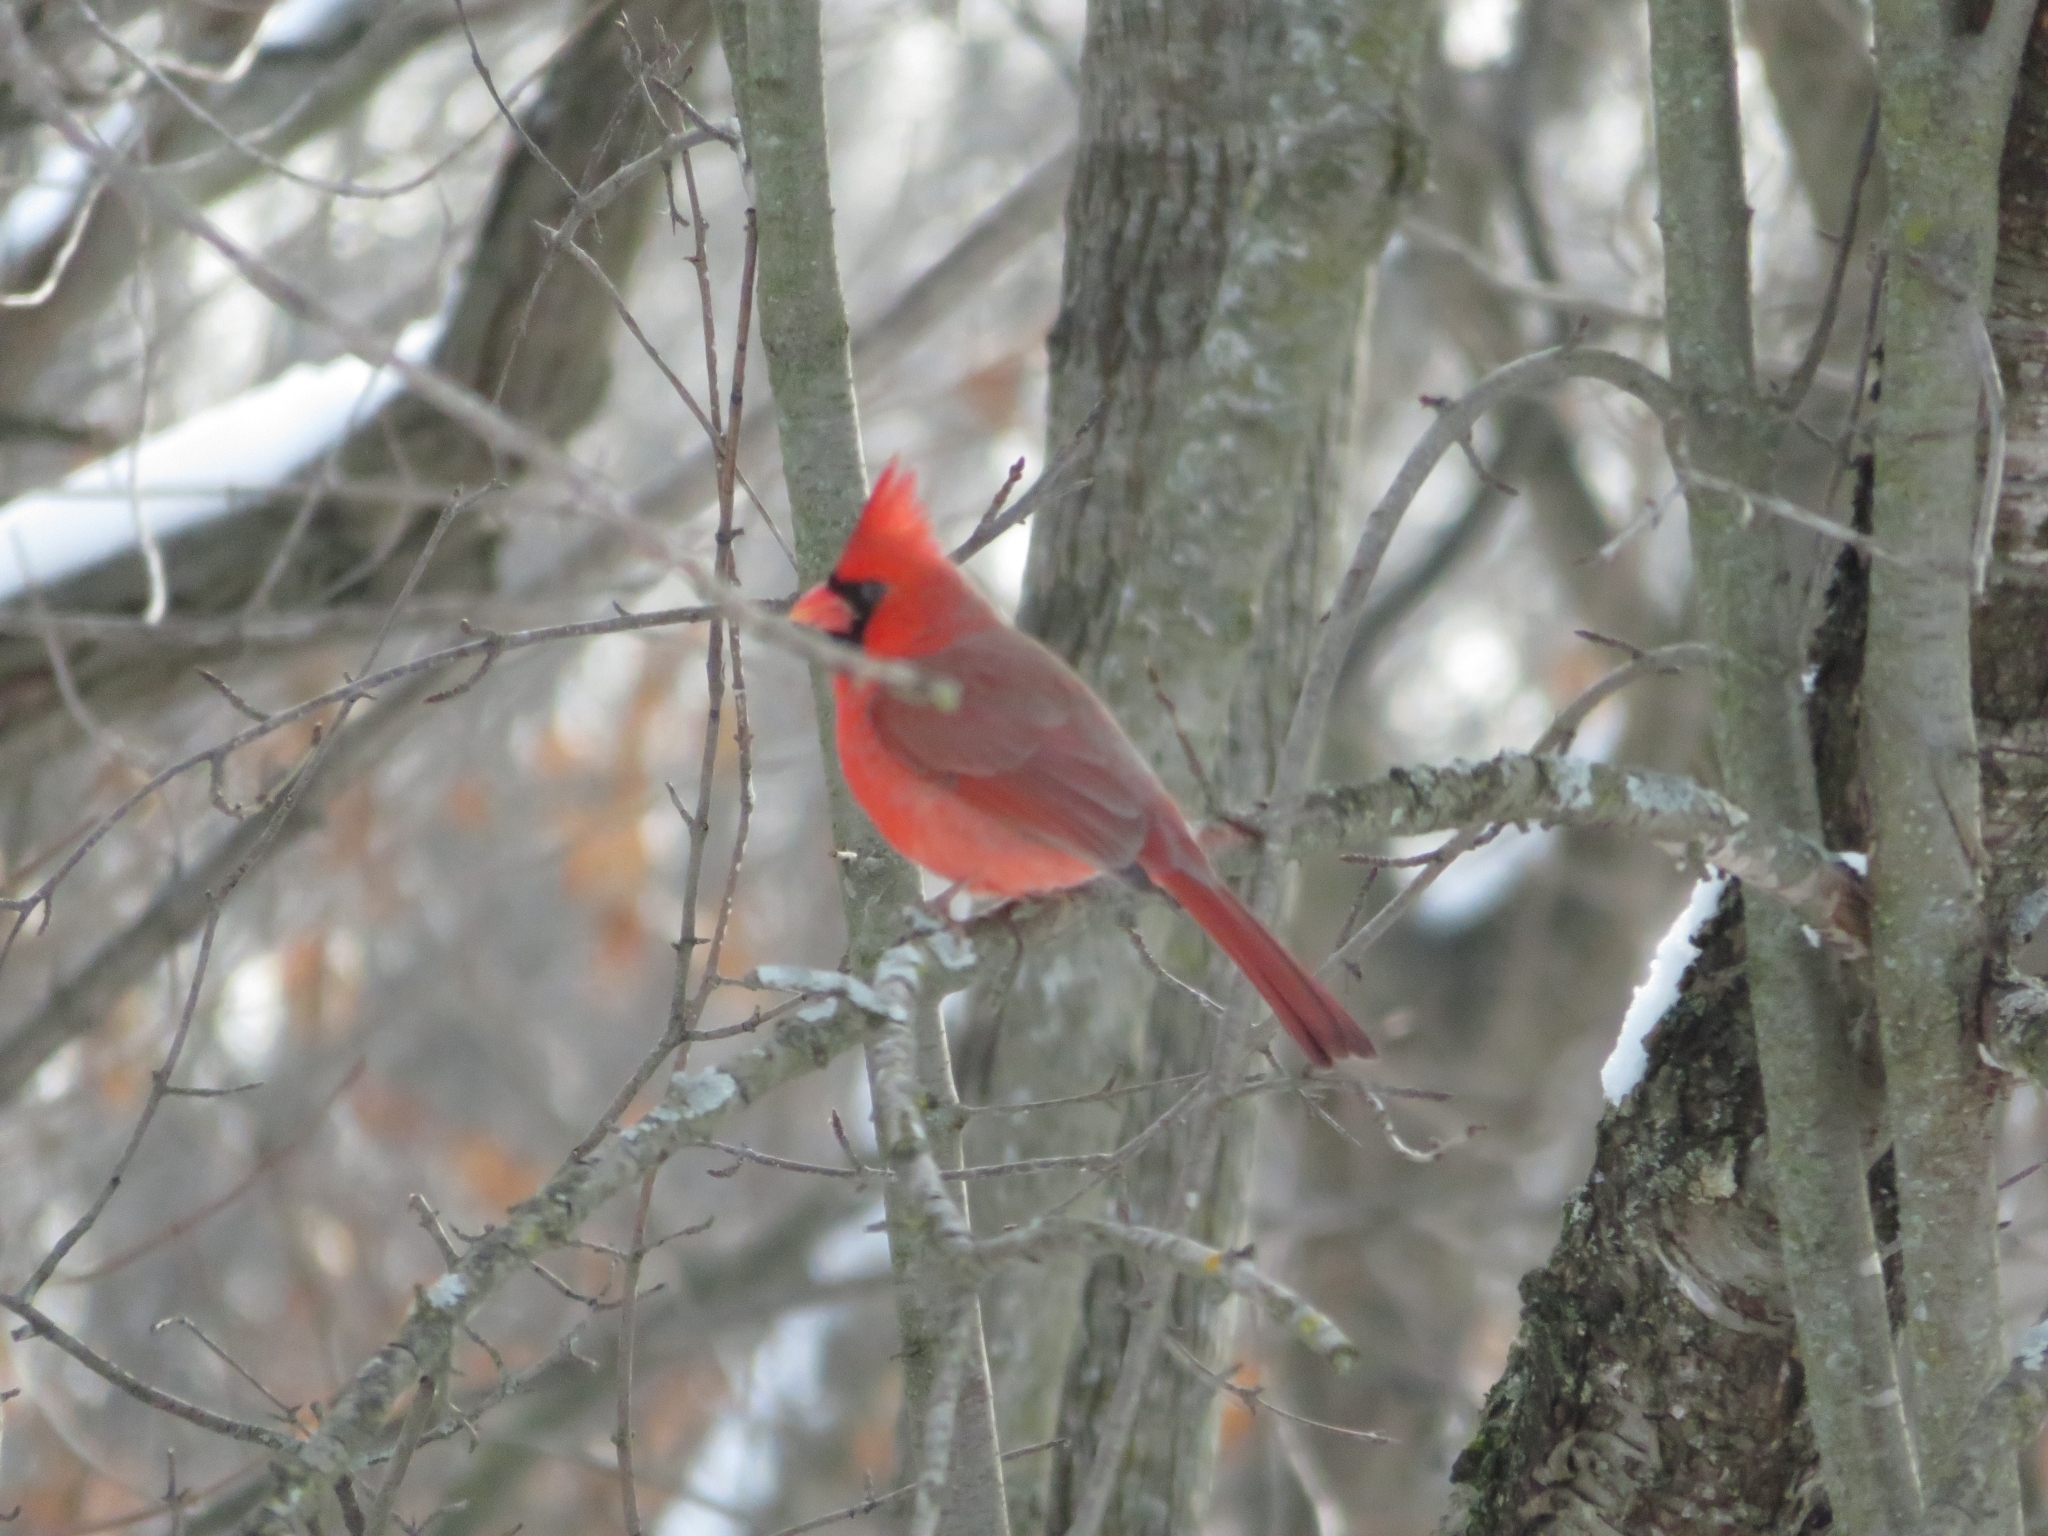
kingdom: Animalia
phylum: Chordata
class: Aves
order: Passeriformes
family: Cardinalidae
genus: Cardinalis
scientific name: Cardinalis cardinalis
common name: Northern cardinal
